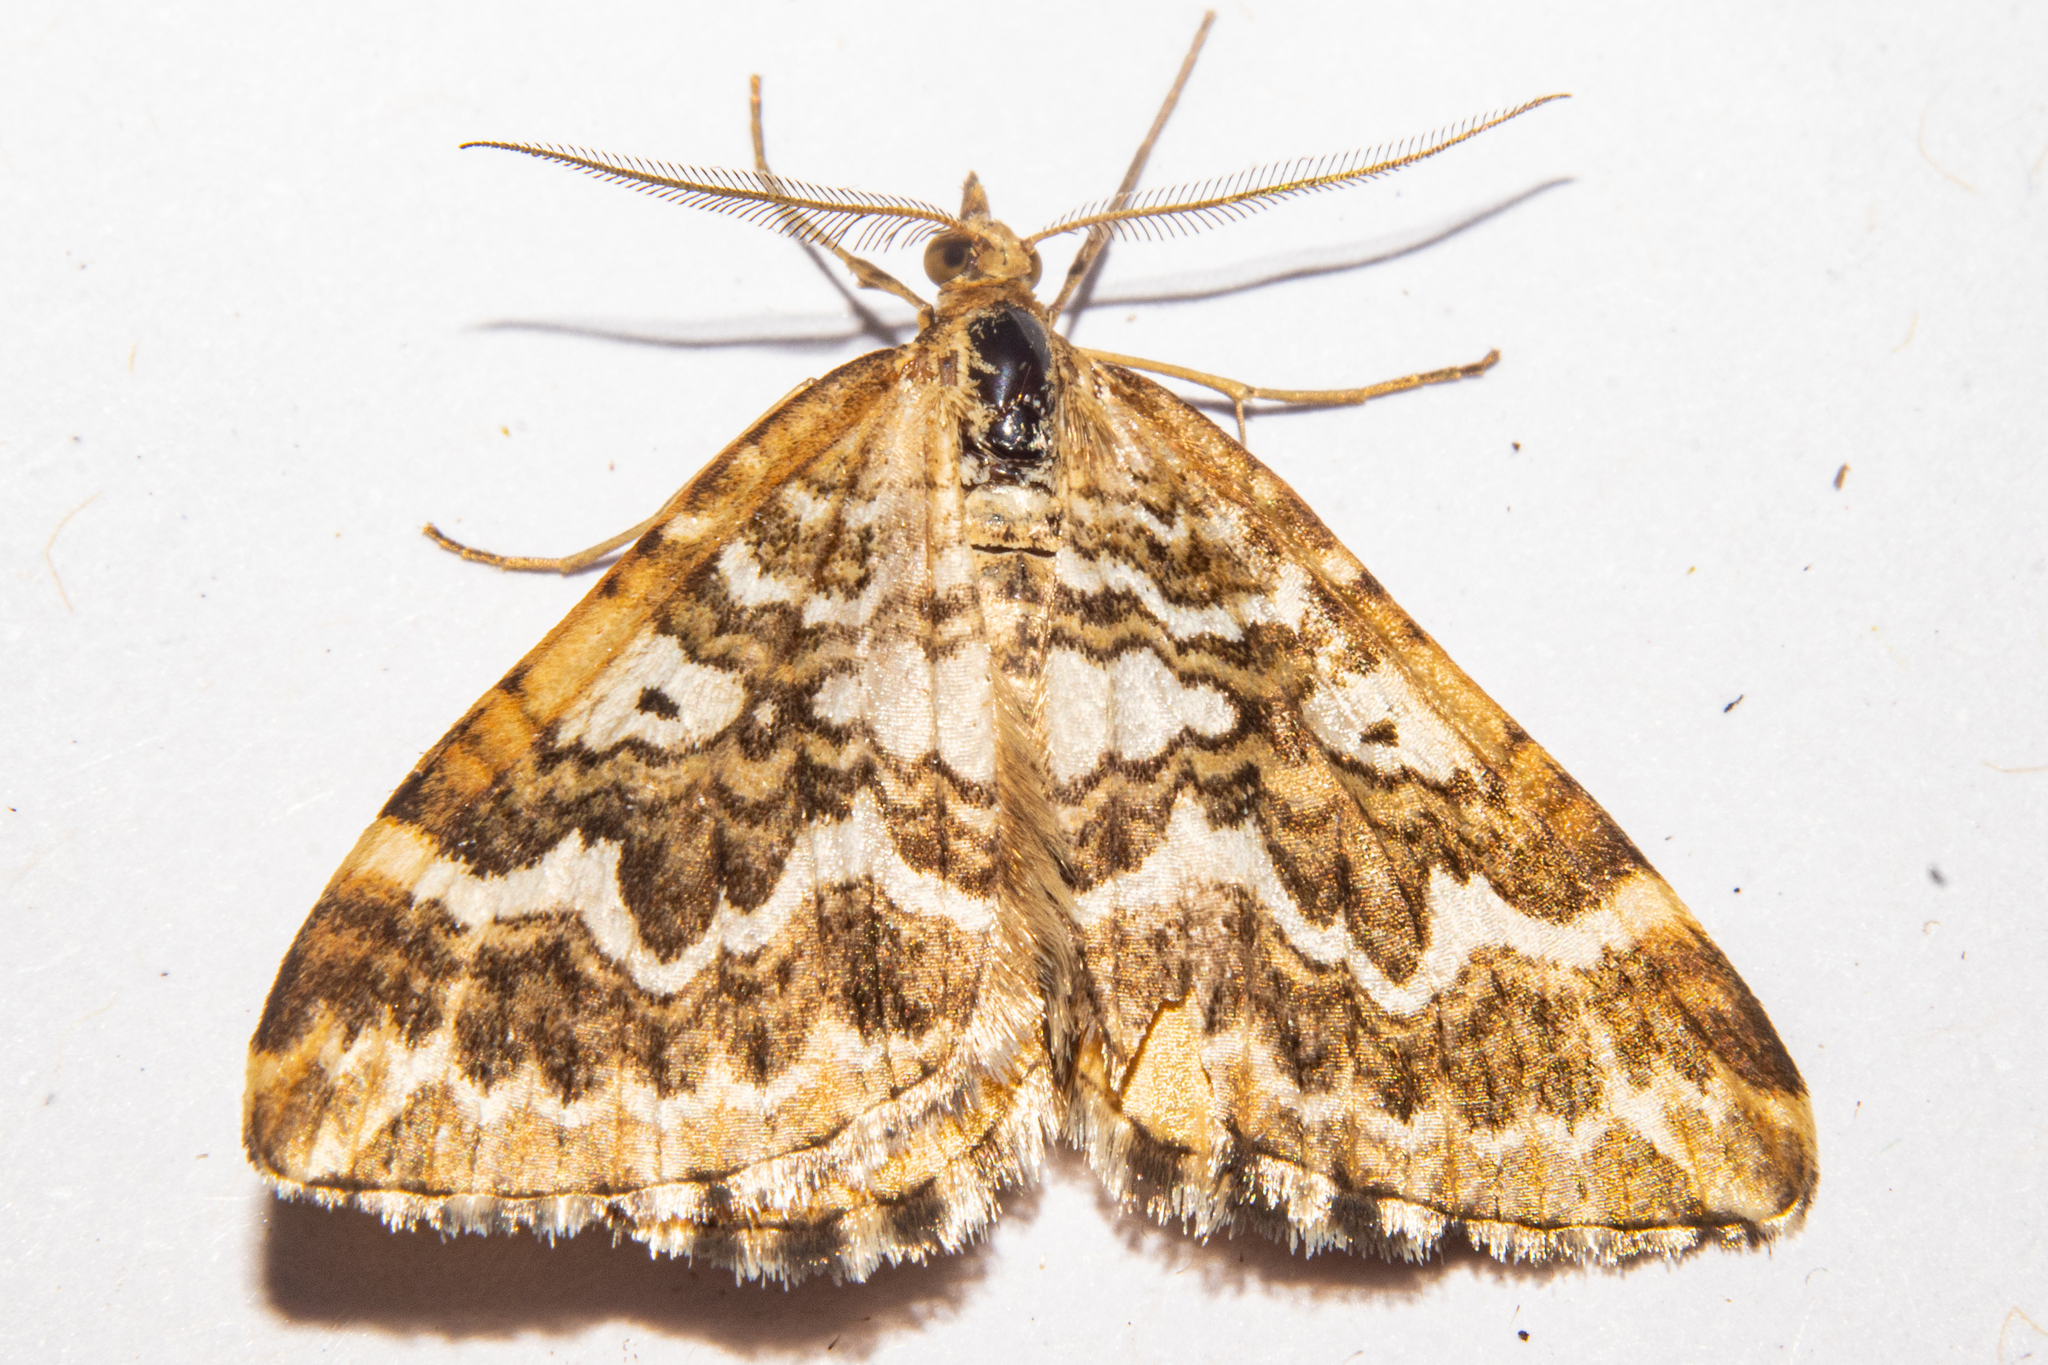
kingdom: Animalia
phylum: Arthropoda
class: Insecta
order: Lepidoptera
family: Geometridae
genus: Asaphodes
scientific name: Asaphodes clarata
